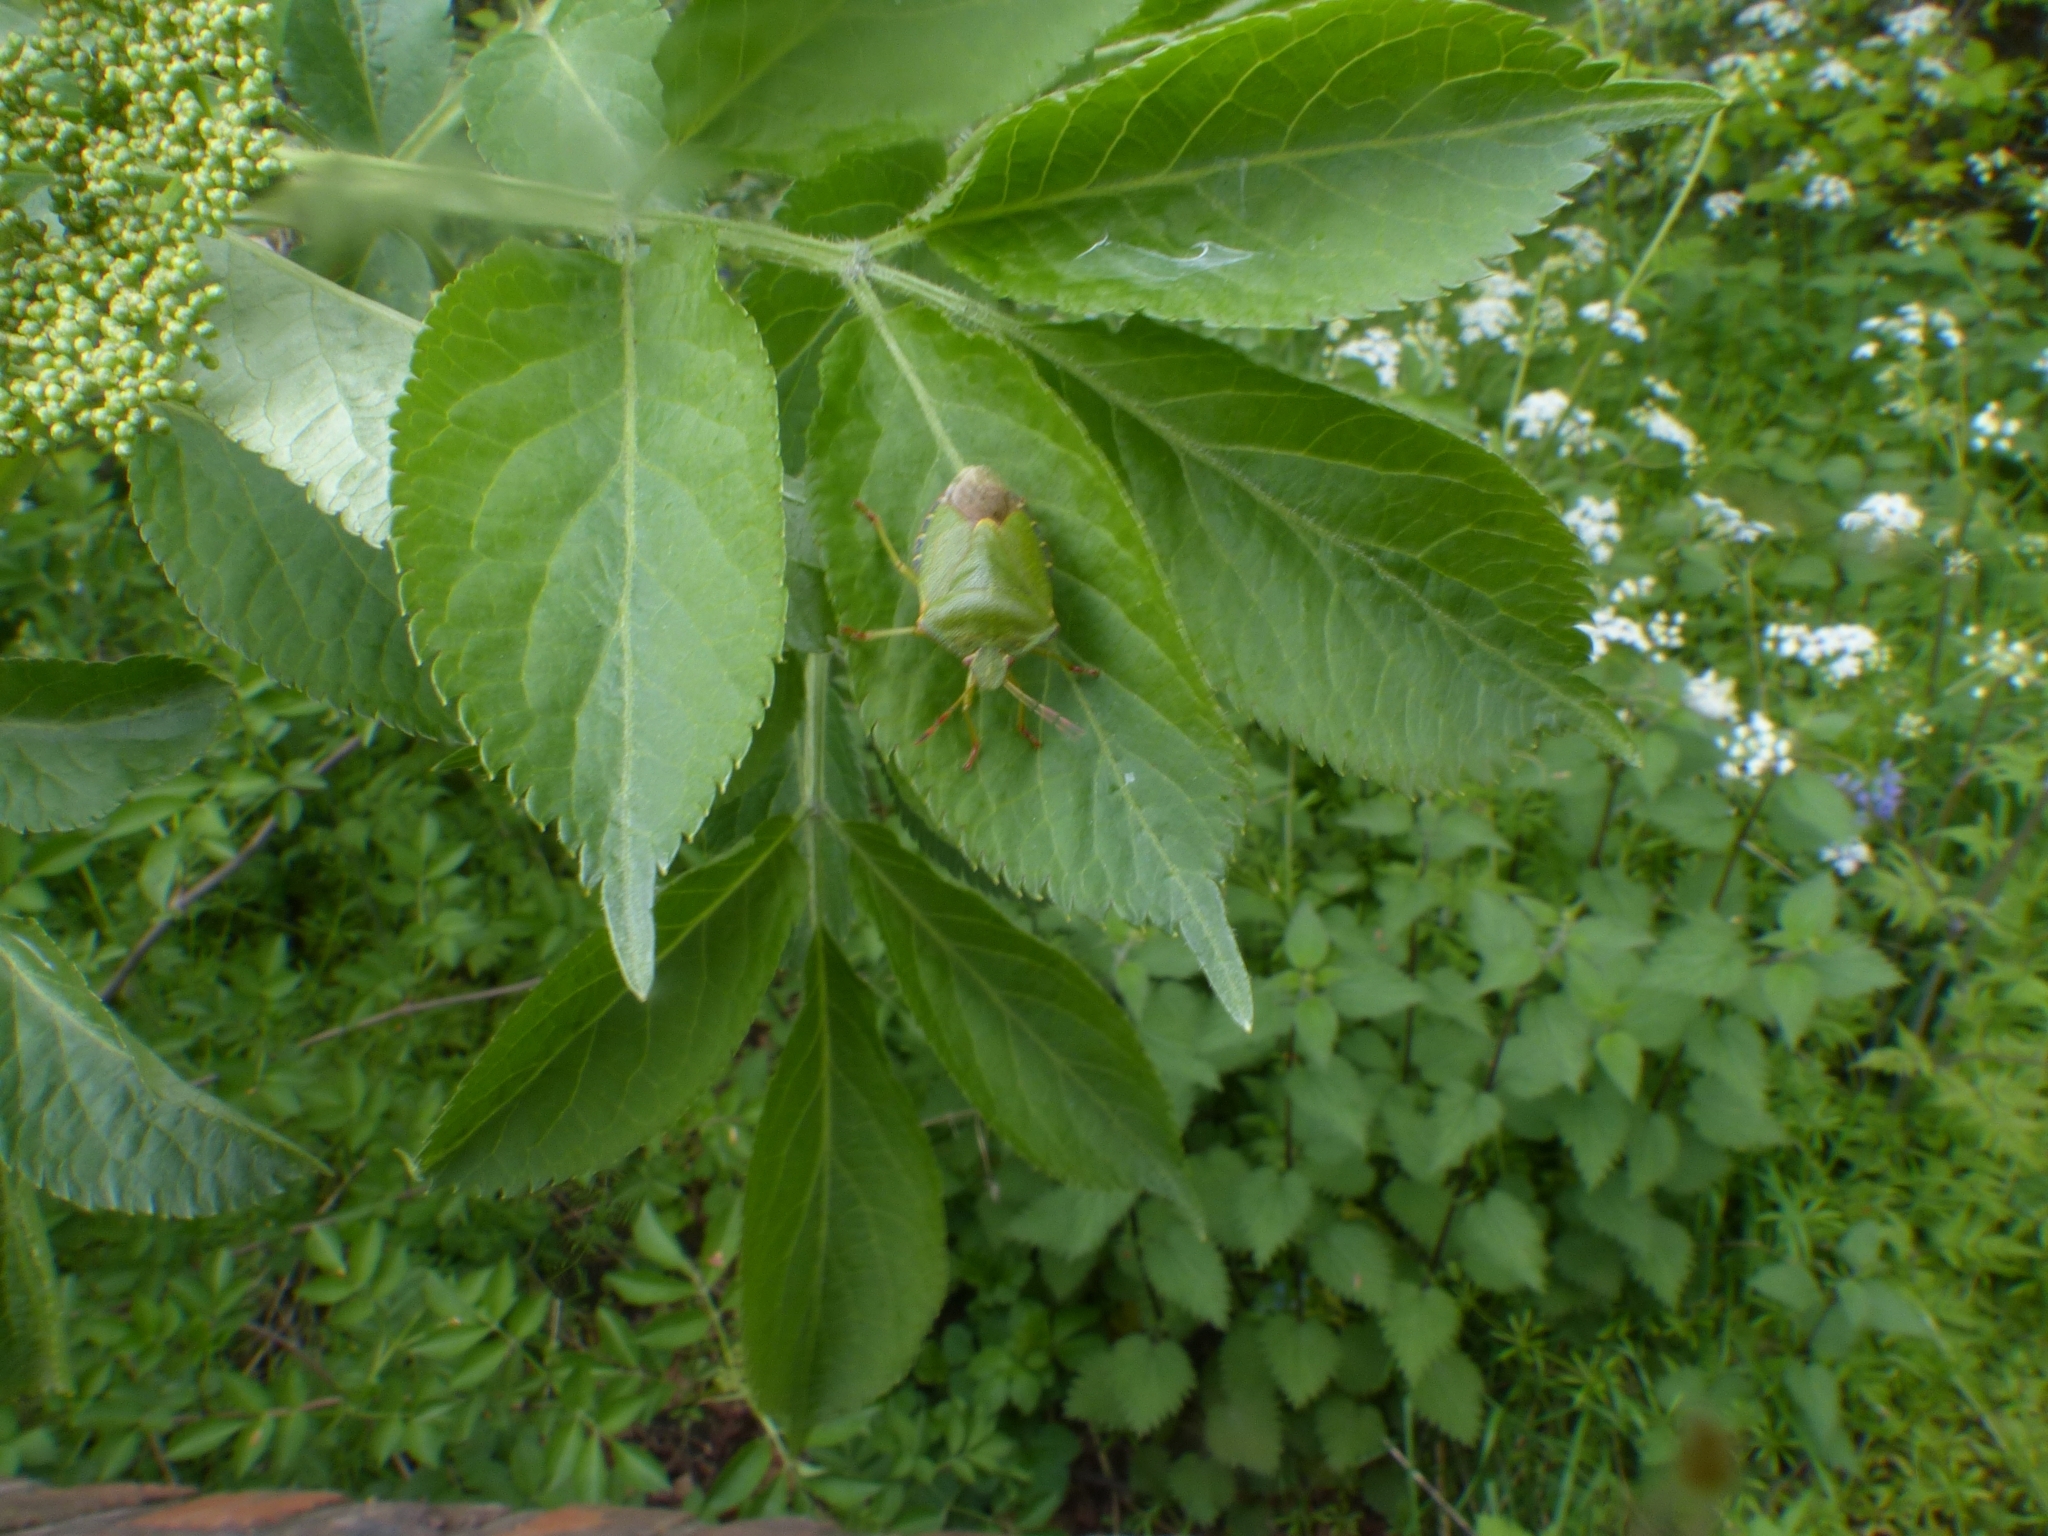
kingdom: Animalia
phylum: Arthropoda
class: Insecta
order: Hemiptera
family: Pentatomidae
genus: Palomena
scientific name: Palomena prasina
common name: Green shieldbug
